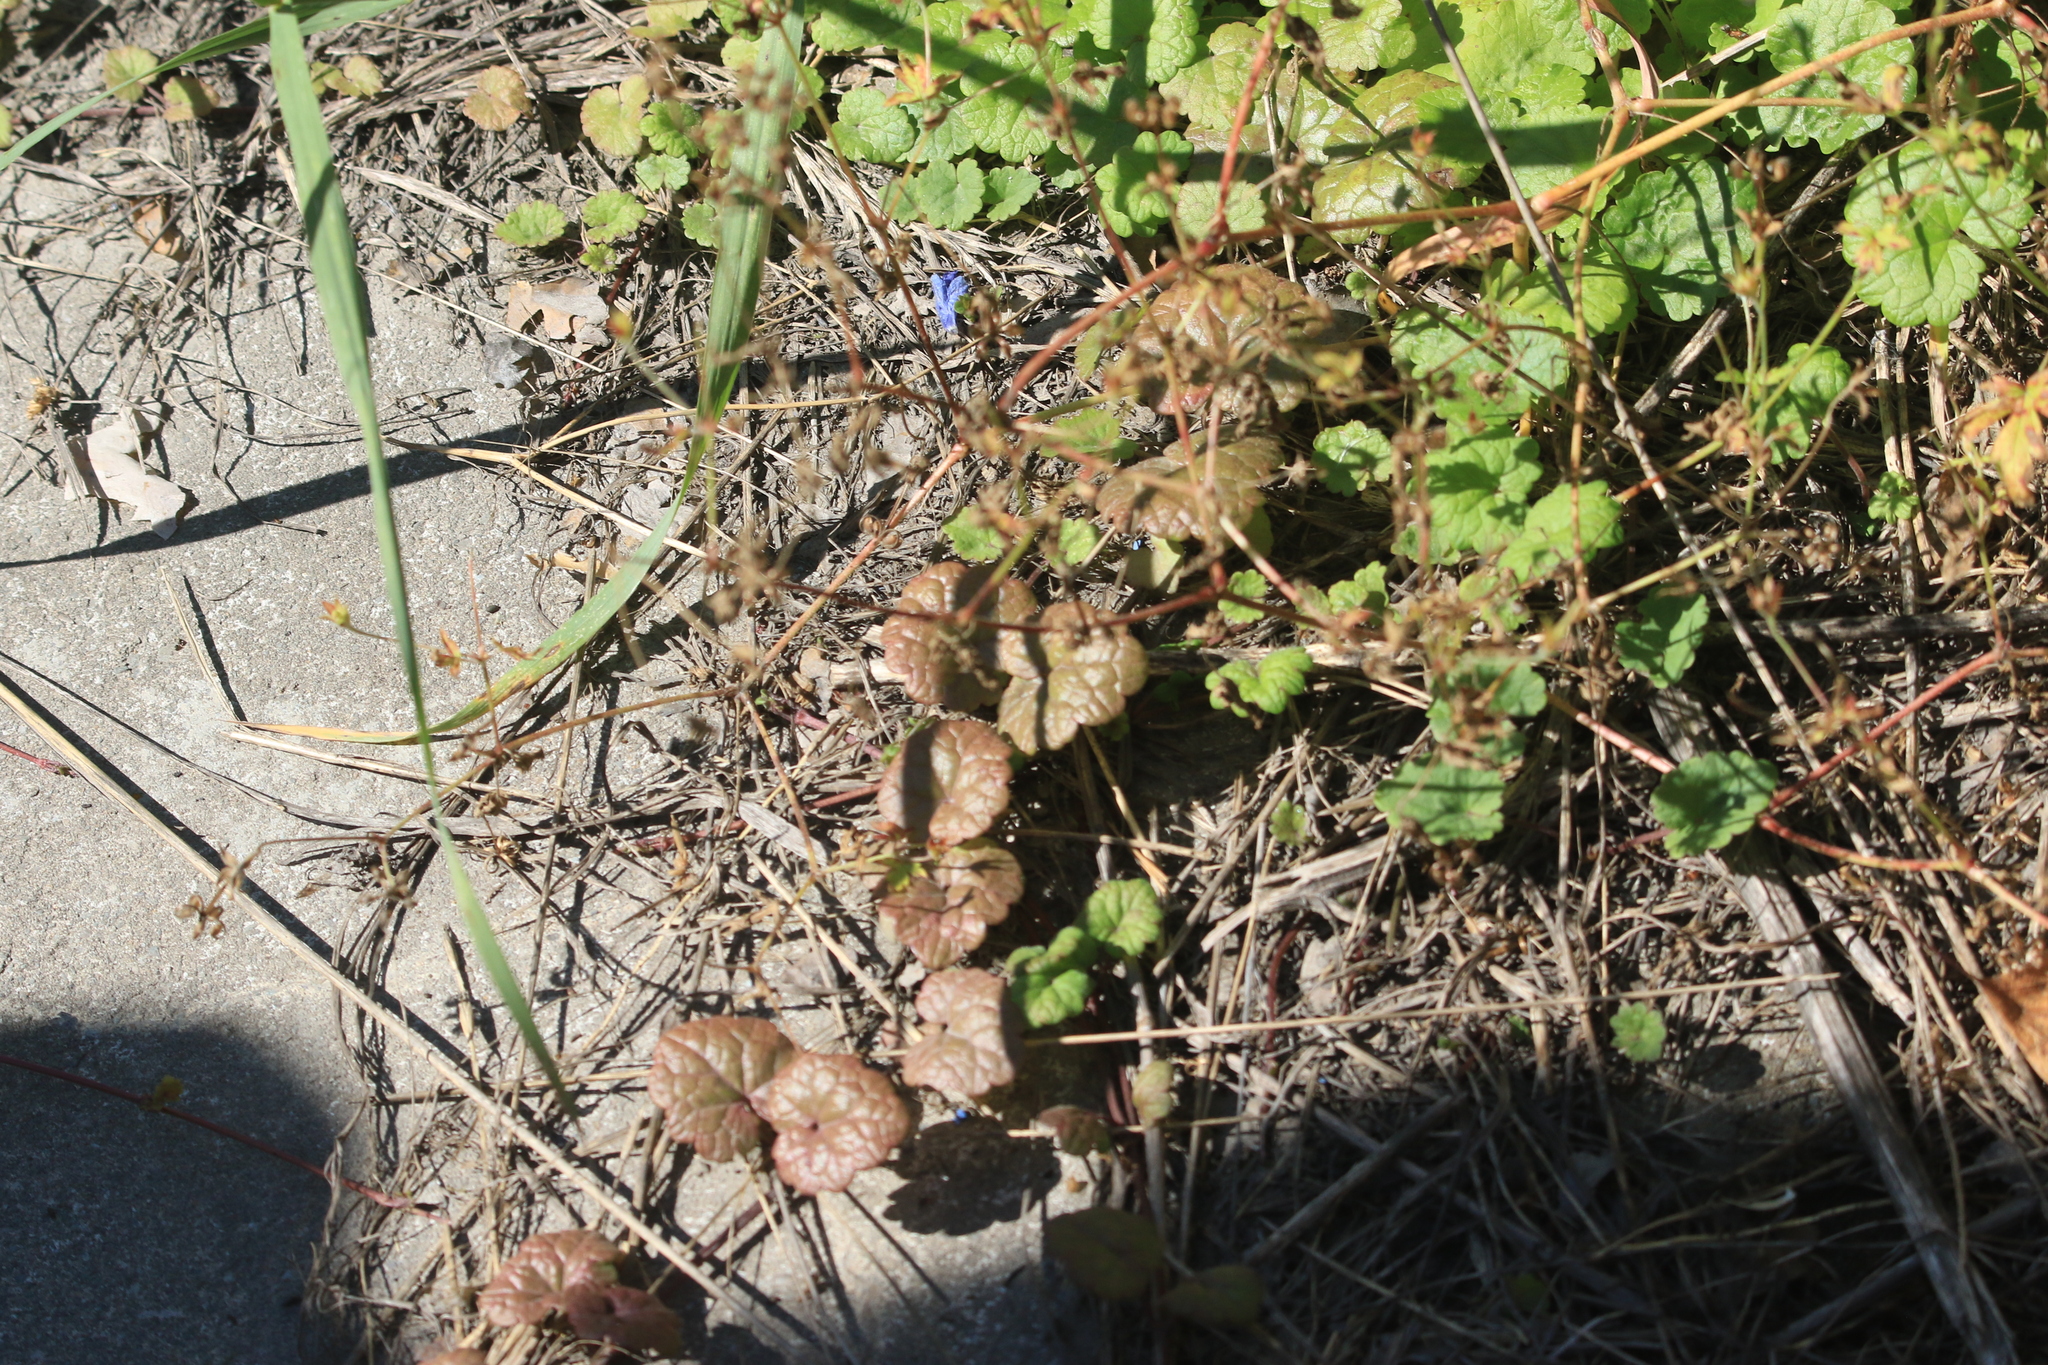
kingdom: Plantae
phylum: Tracheophyta
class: Magnoliopsida
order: Lamiales
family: Lamiaceae
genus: Glechoma
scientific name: Glechoma hederacea
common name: Ground ivy
